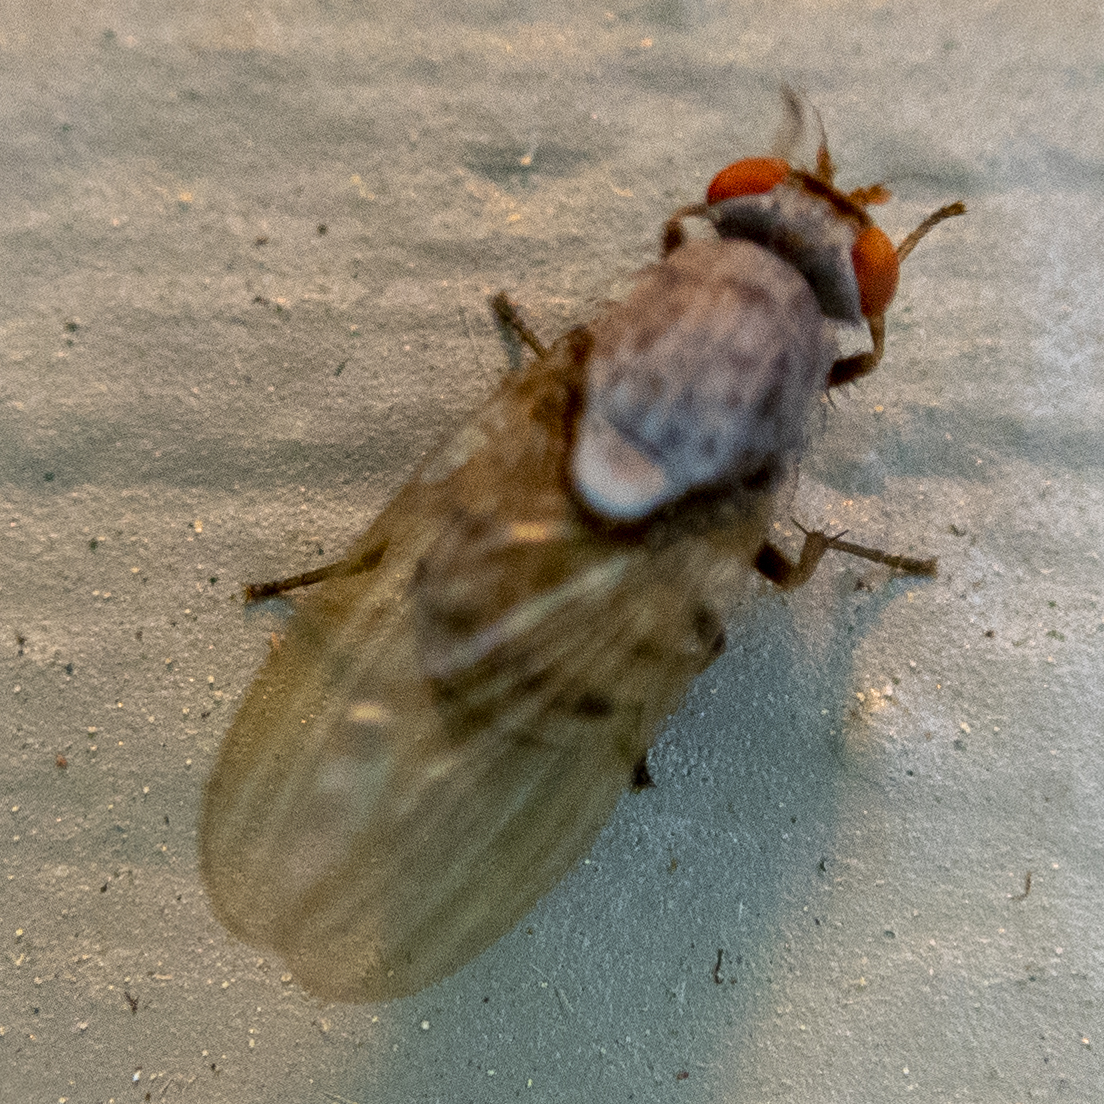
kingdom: Animalia
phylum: Arthropoda
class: Insecta
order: Diptera
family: Lauxaniidae
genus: Minettia
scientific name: Minettia magna
